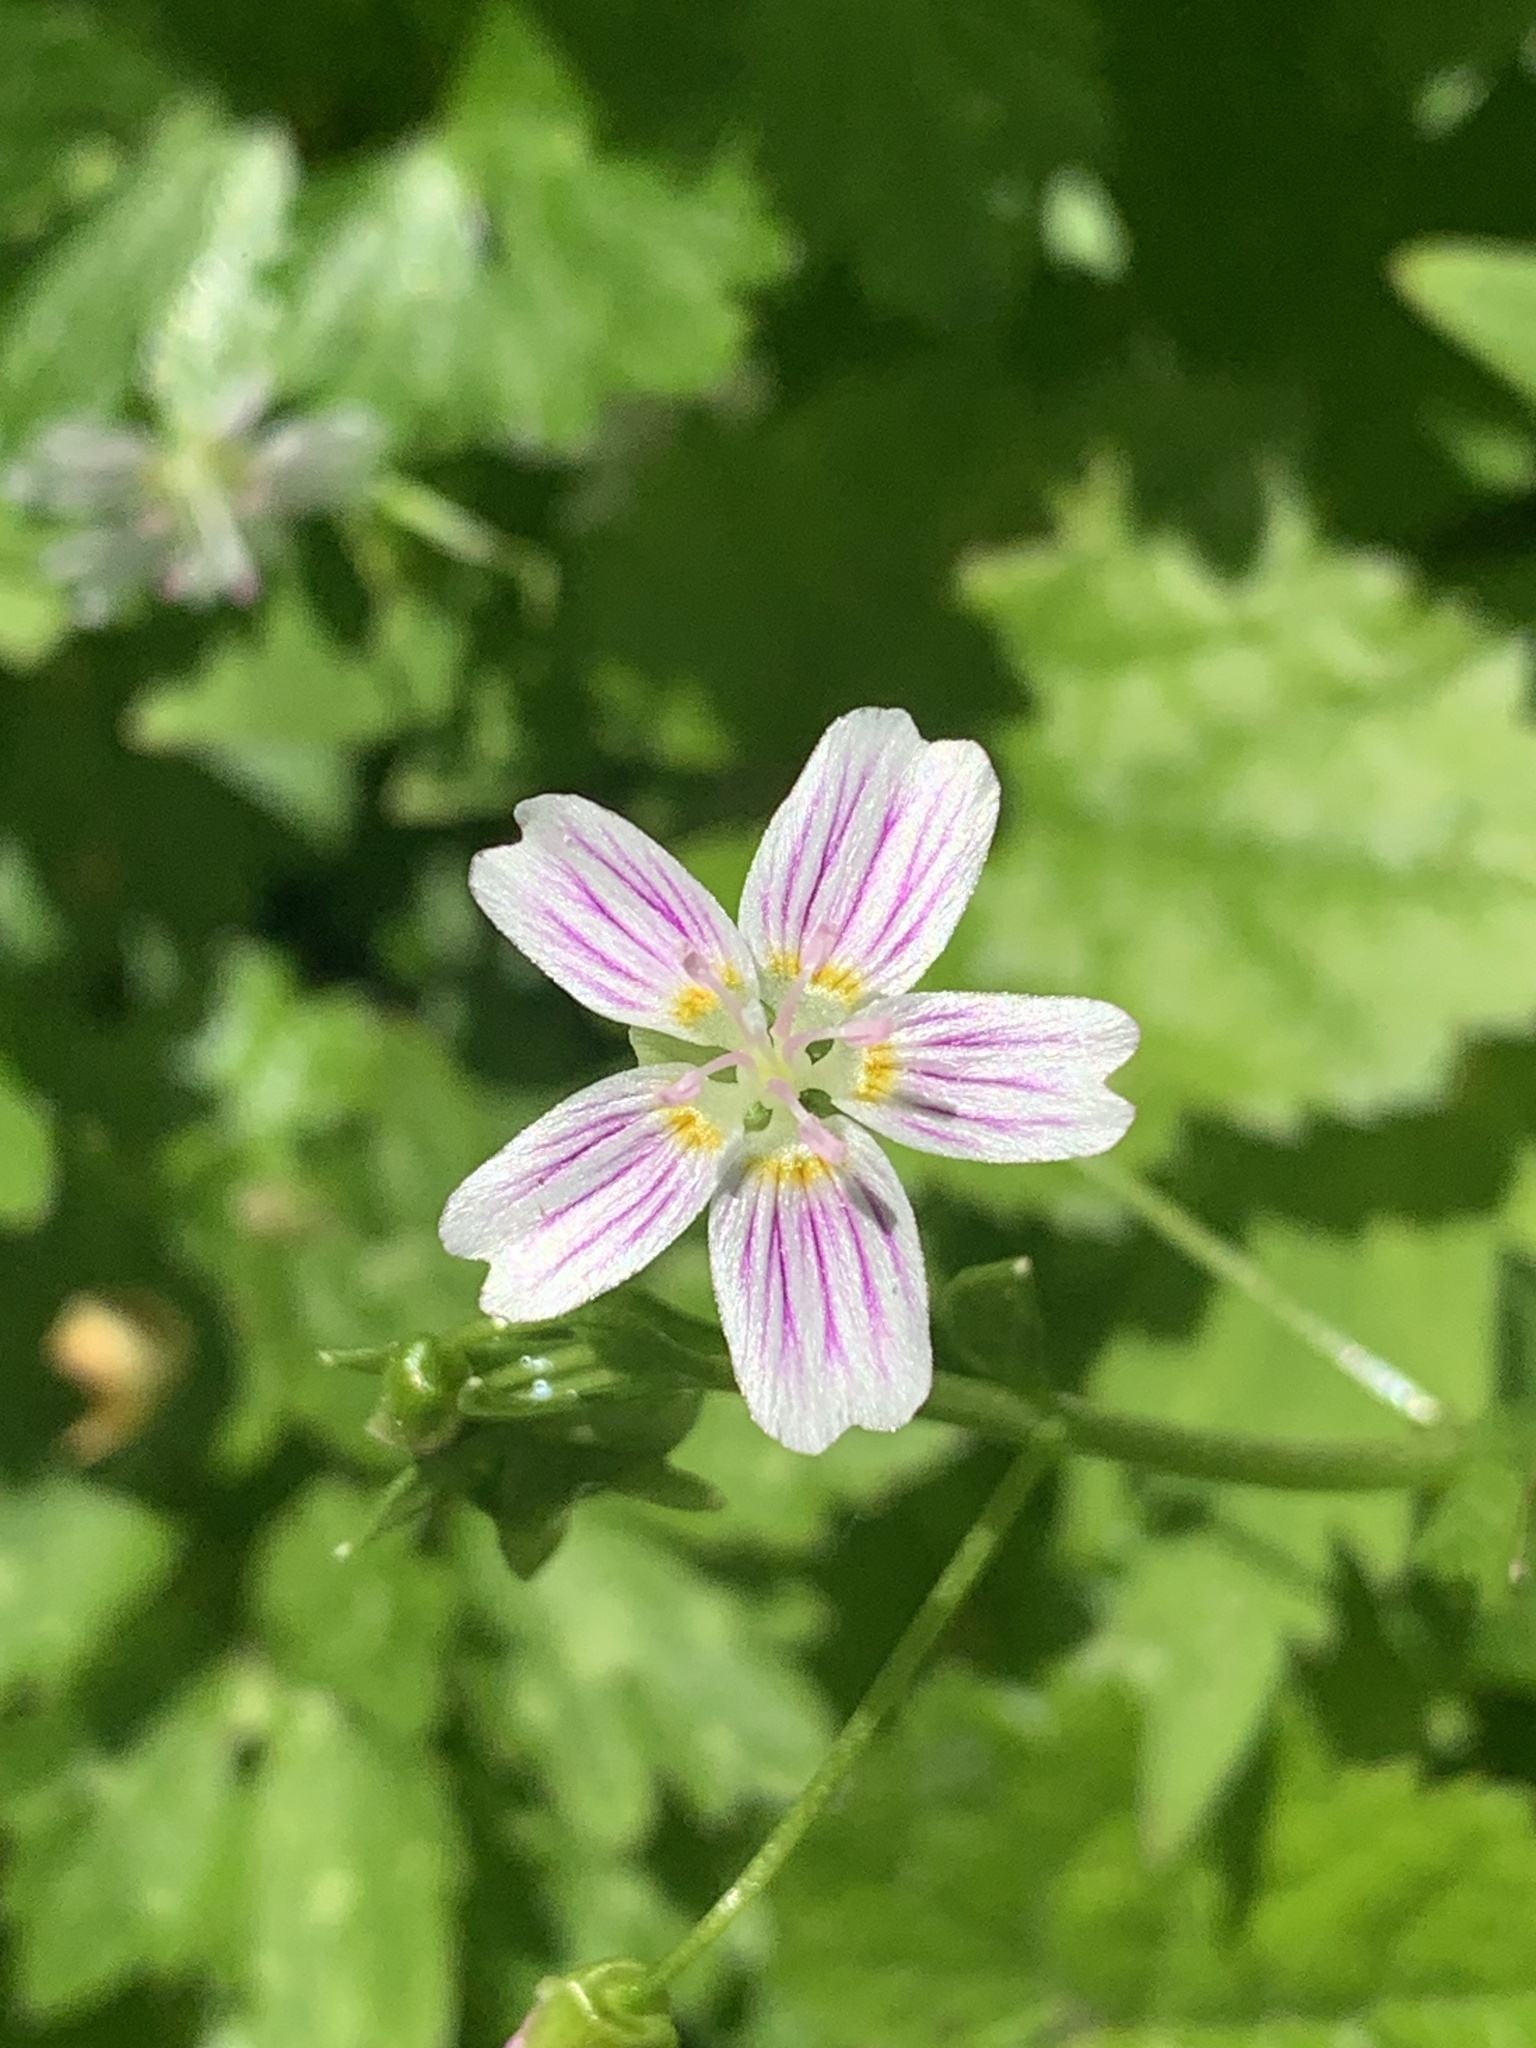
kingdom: Plantae
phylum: Tracheophyta
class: Magnoliopsida
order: Caryophyllales
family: Montiaceae
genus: Claytonia
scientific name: Claytonia sibirica
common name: Pink purslane
